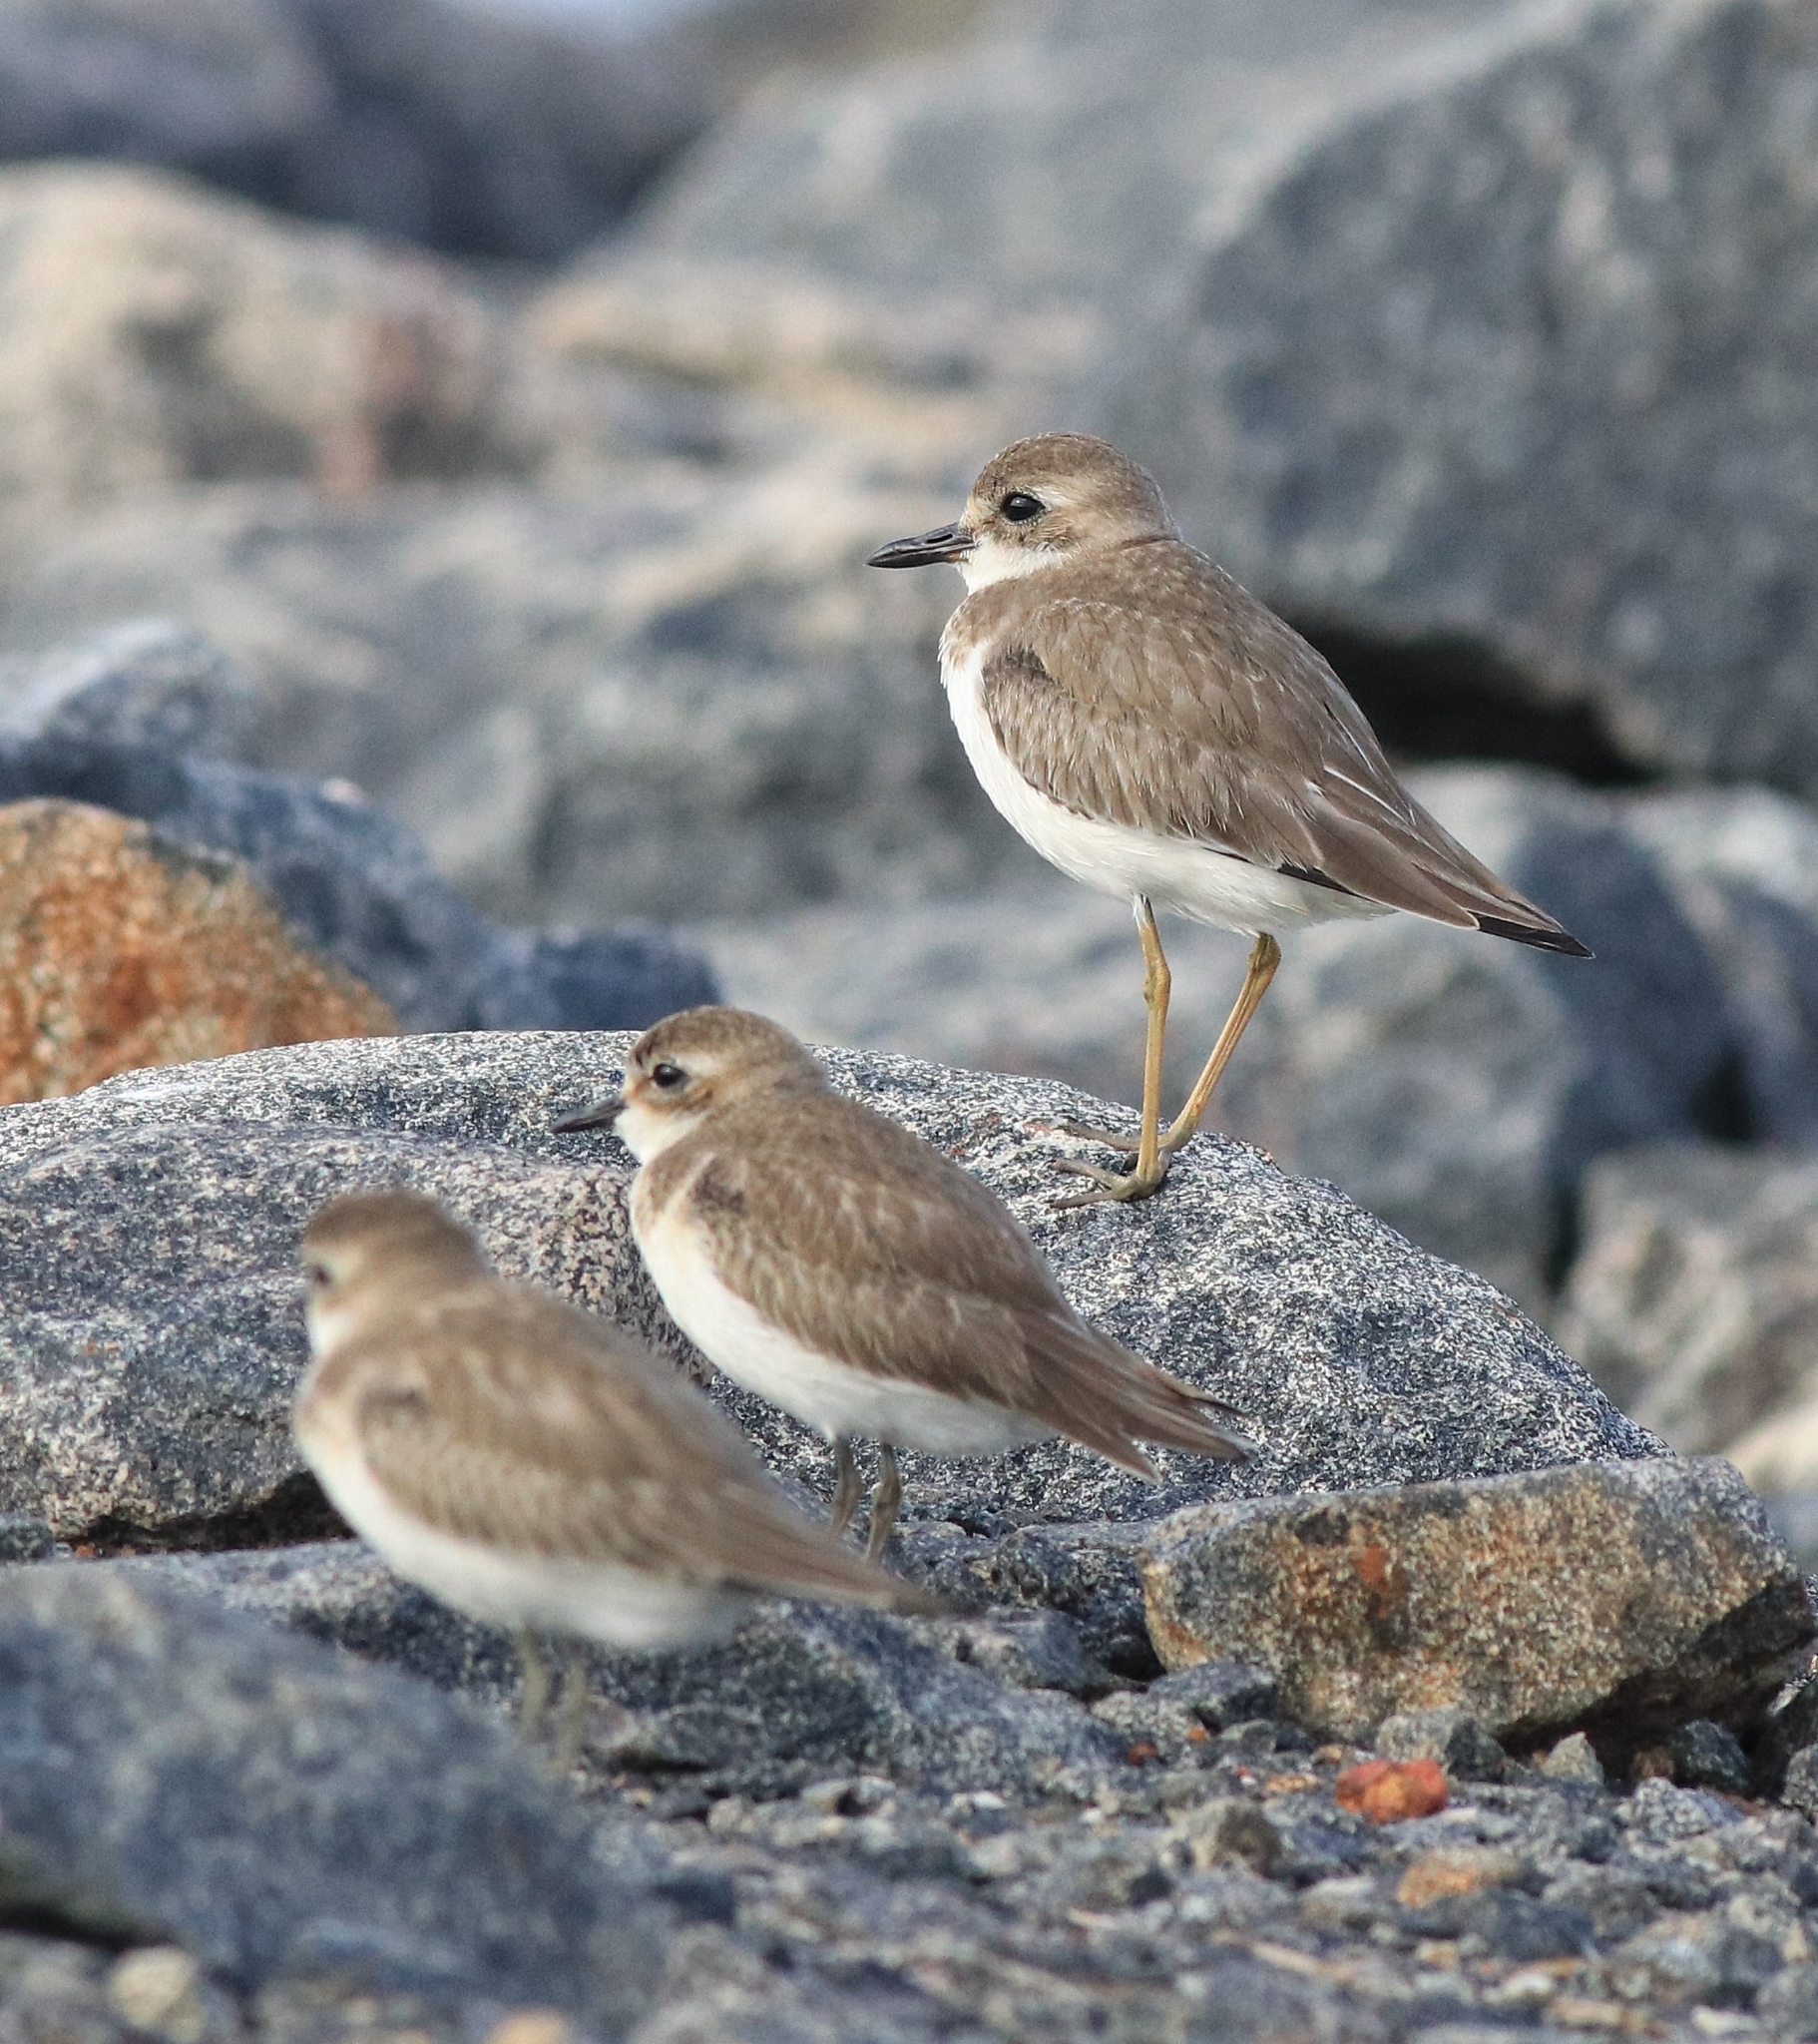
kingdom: Animalia
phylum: Chordata
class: Aves
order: Charadriiformes
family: Charadriidae
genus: Charadrius
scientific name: Charadrius leschenaultii
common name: Greater sand plover
